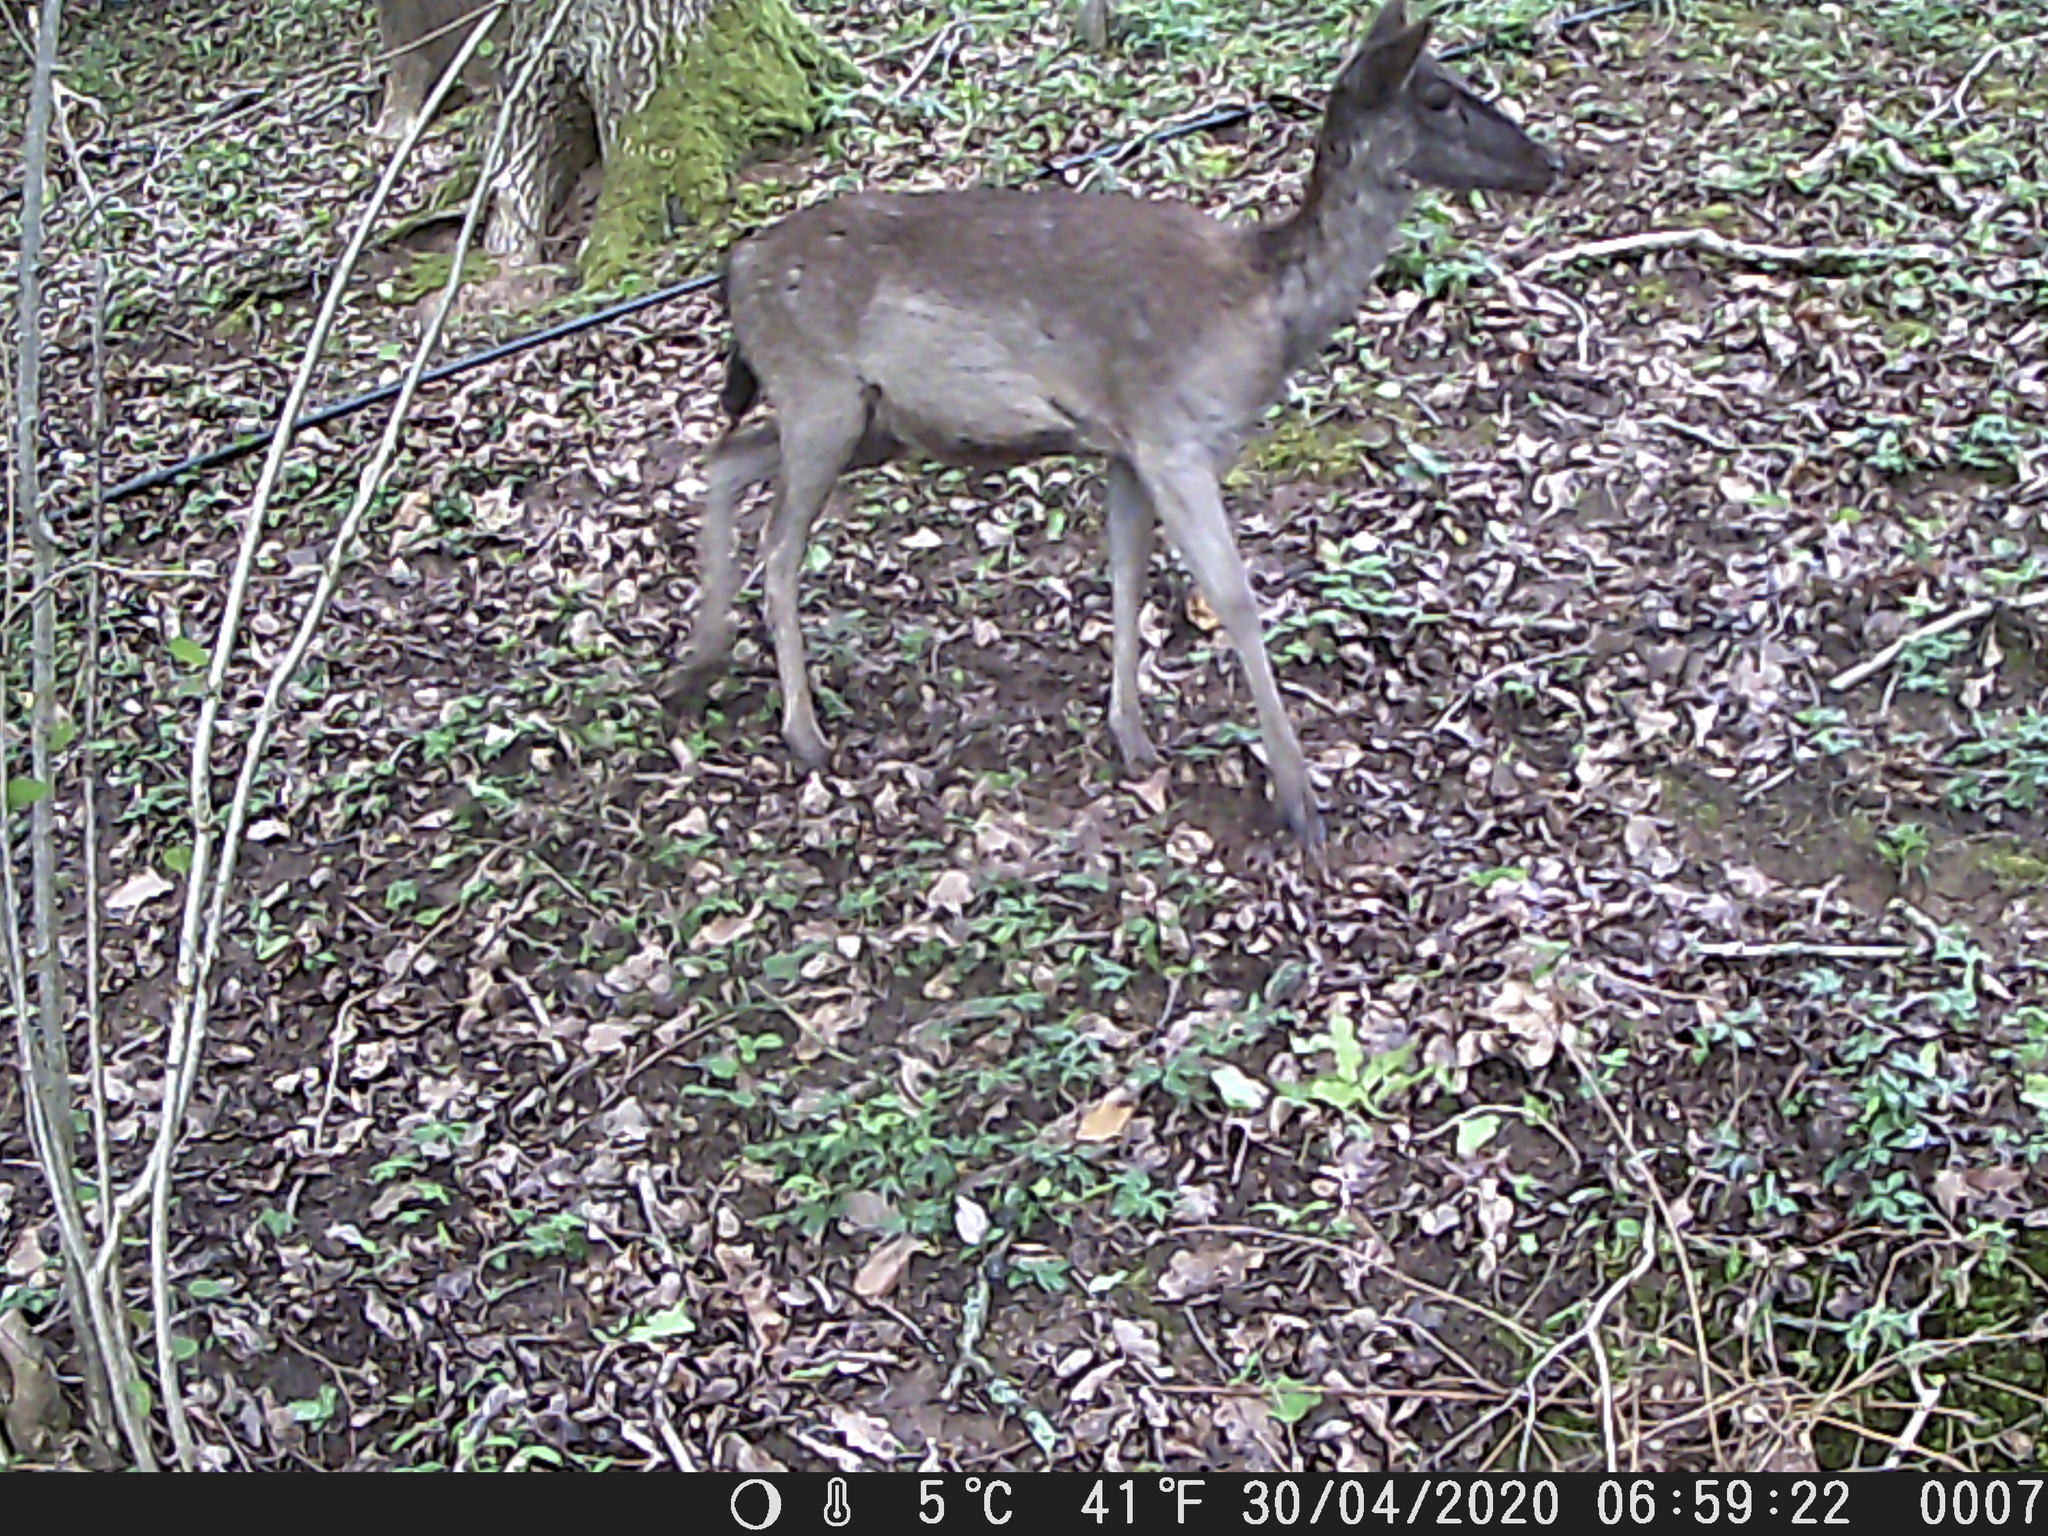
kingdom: Animalia
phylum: Chordata
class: Mammalia
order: Artiodactyla
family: Cervidae
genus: Dama
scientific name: Dama dama
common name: Fallow deer
